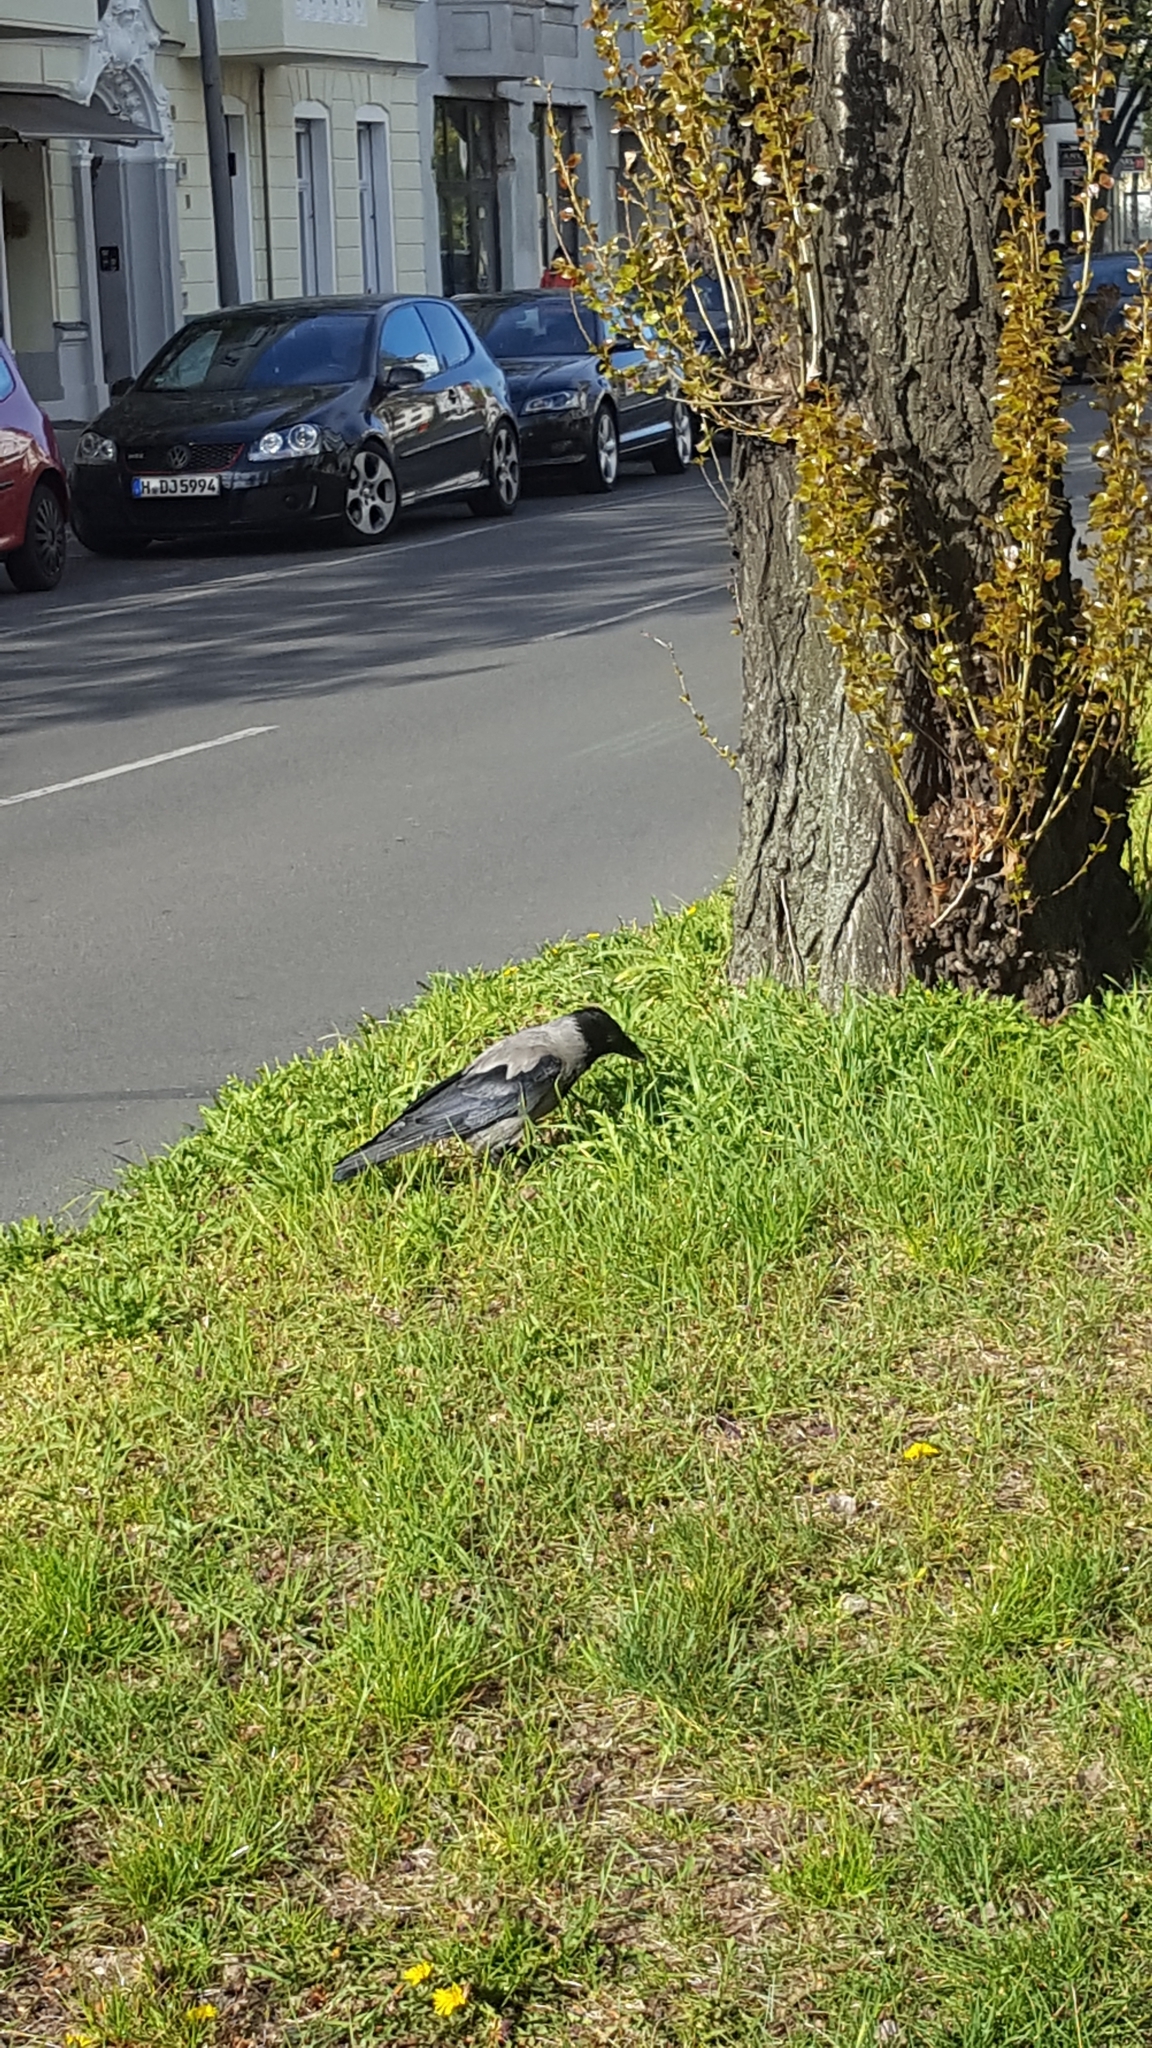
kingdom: Animalia
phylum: Chordata
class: Aves
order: Passeriformes
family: Corvidae
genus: Corvus
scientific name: Corvus cornix
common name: Hooded crow
